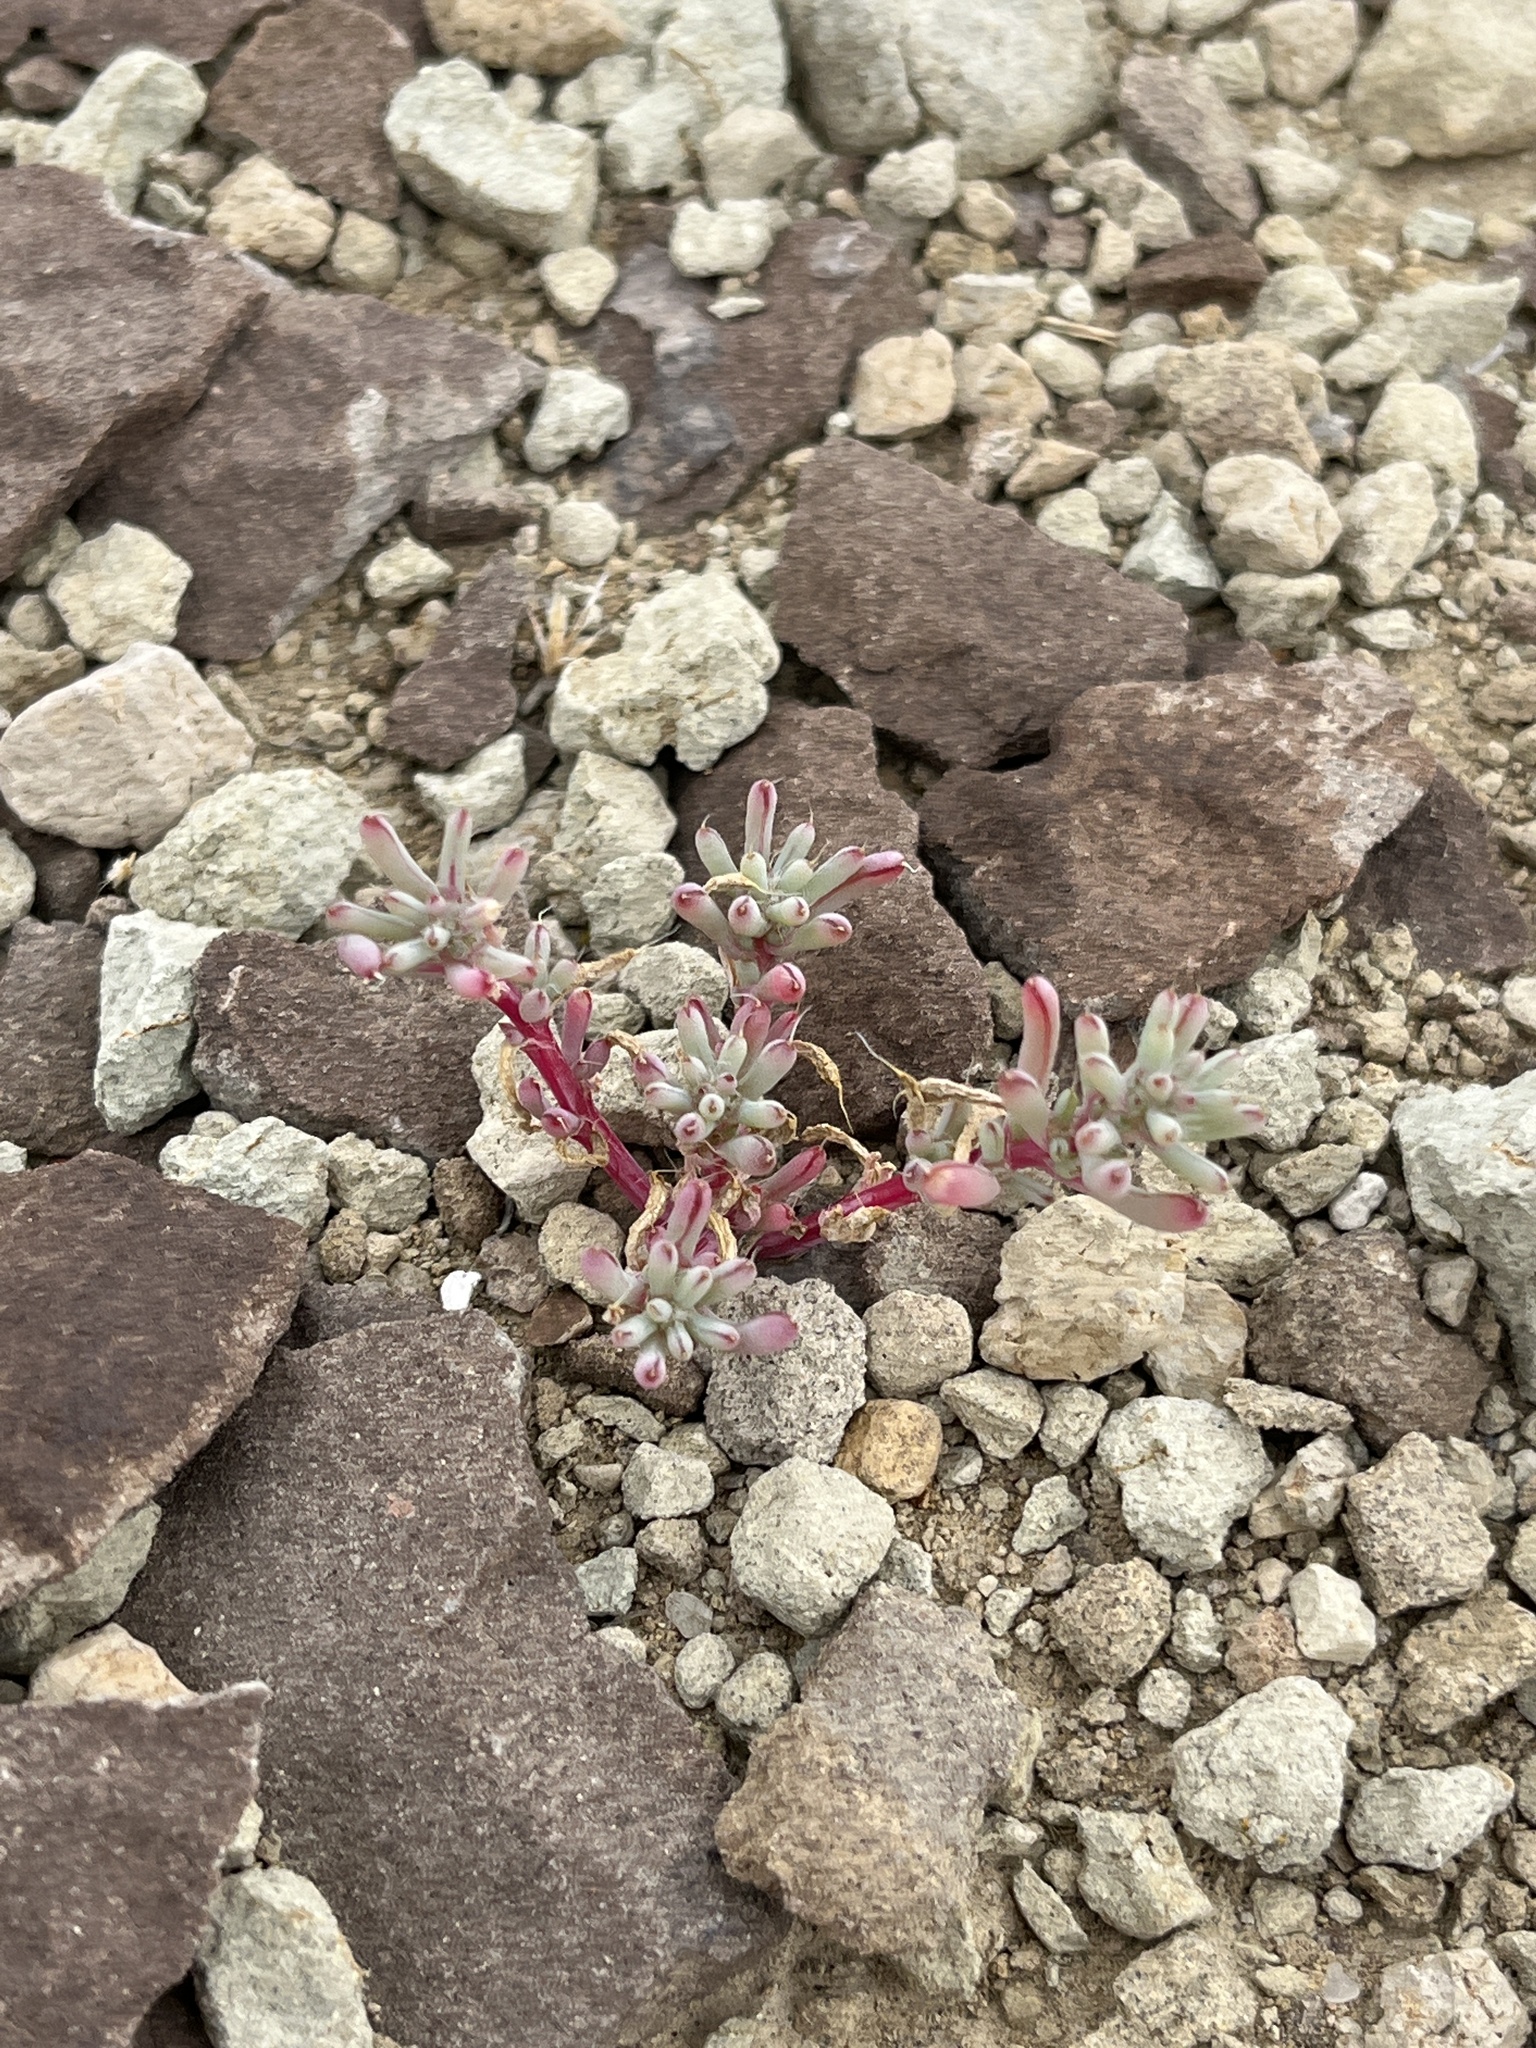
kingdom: Plantae
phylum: Tracheophyta
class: Magnoliopsida
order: Caryophyllales
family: Amaranthaceae
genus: Halogeton
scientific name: Halogeton glomeratus
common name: Saltlover
